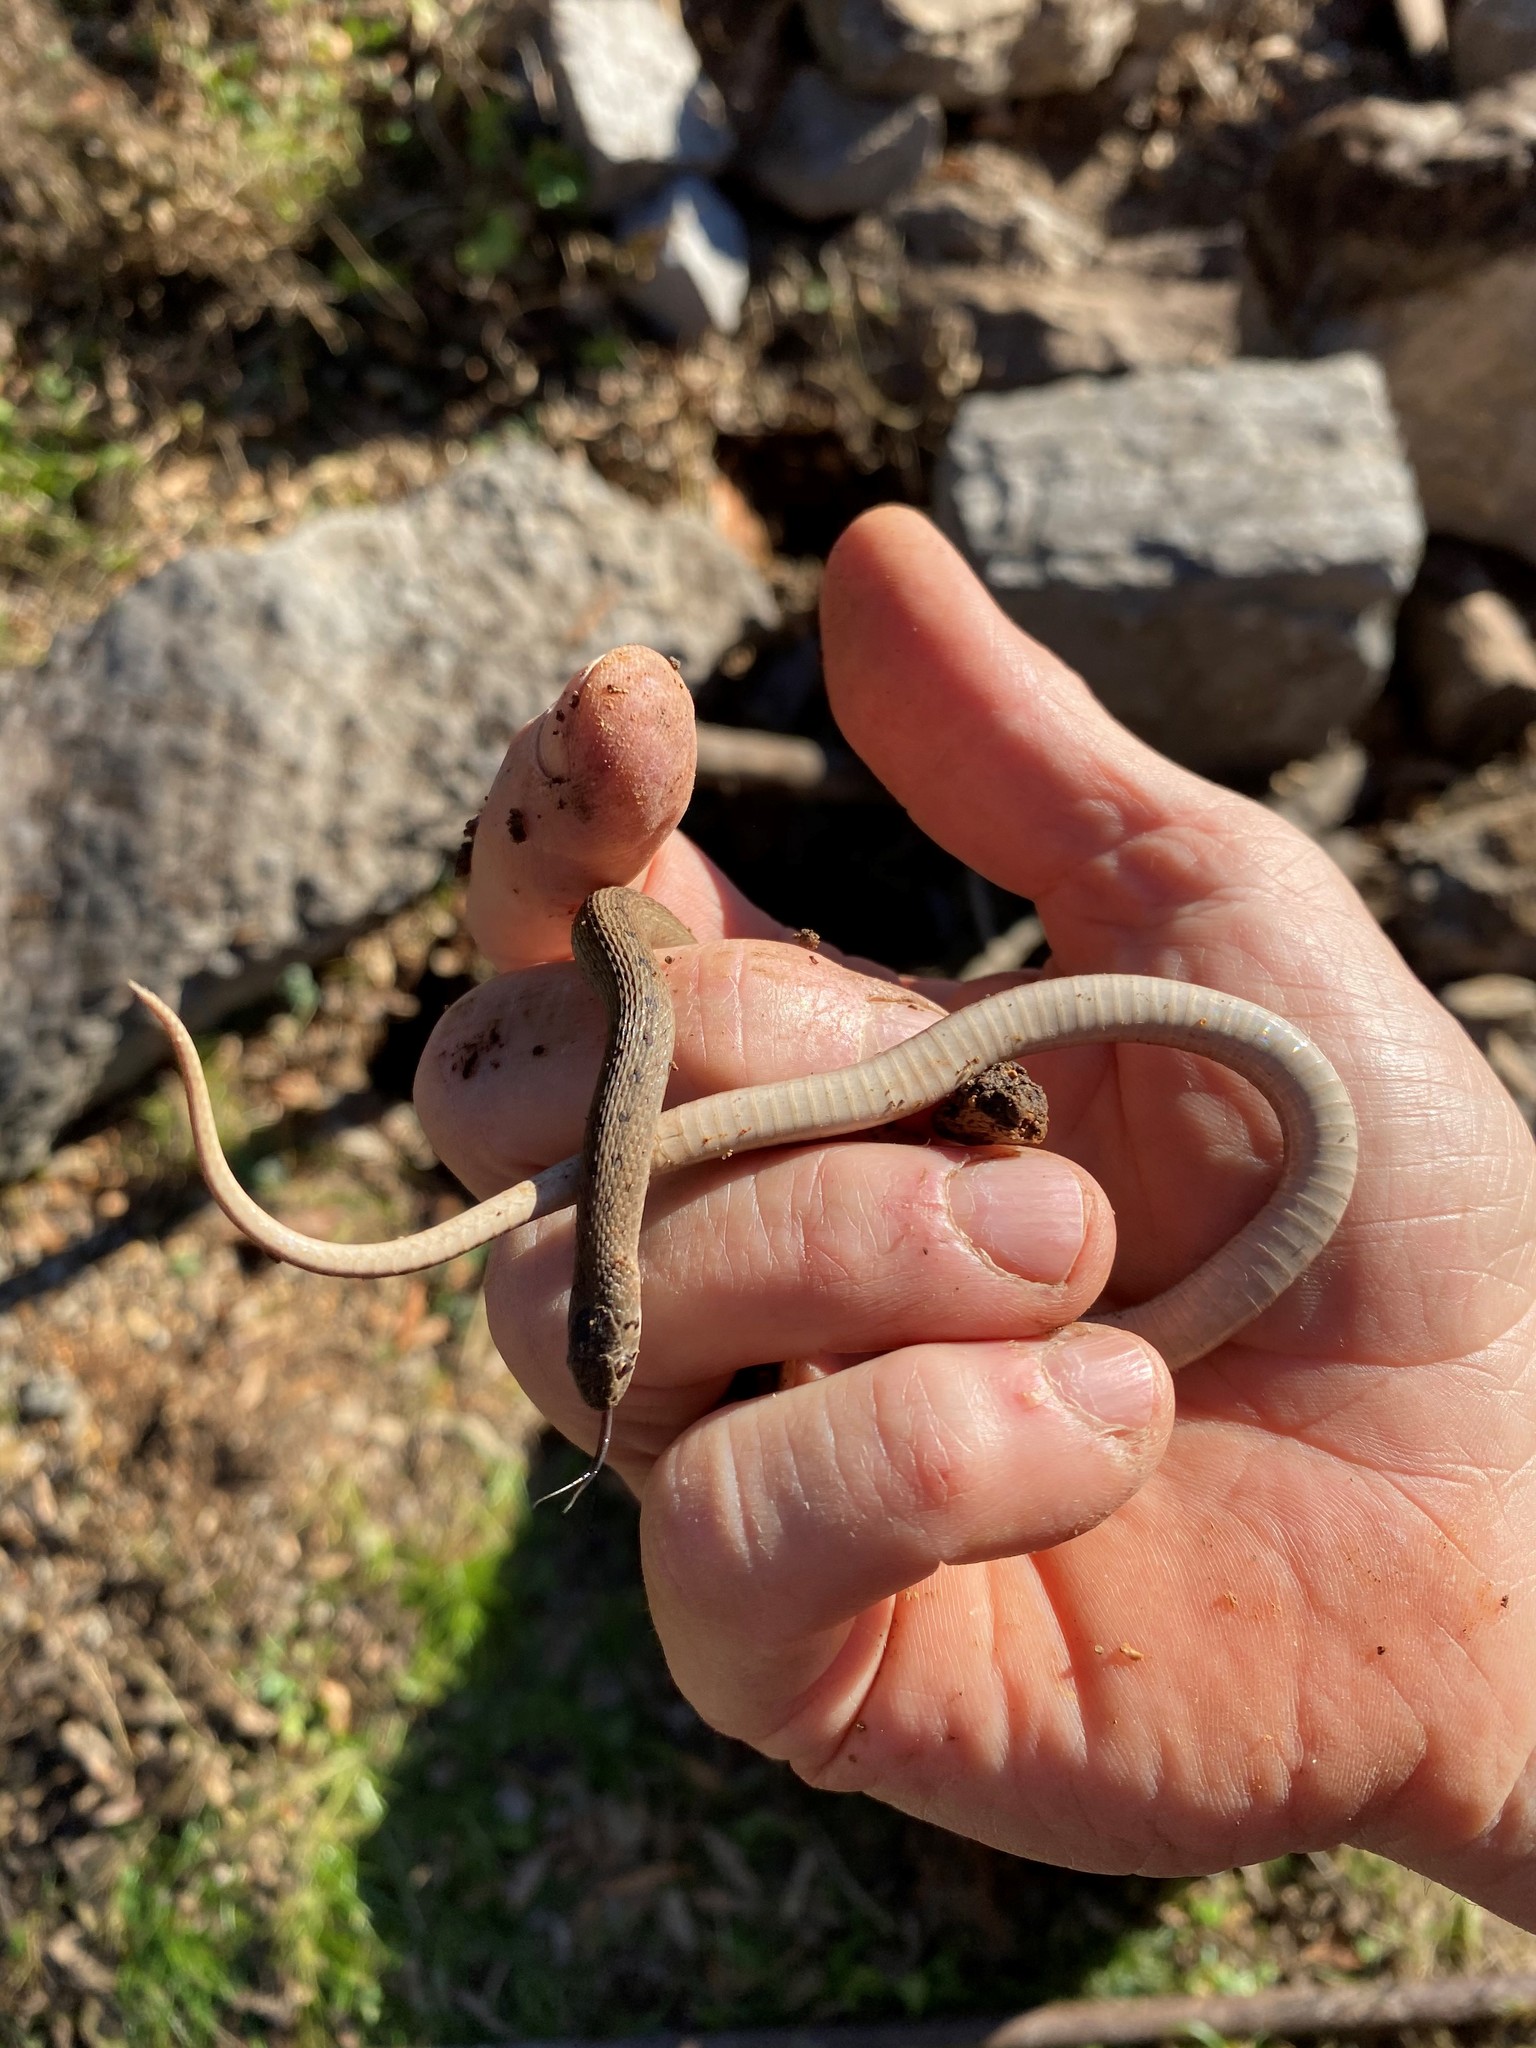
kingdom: Animalia
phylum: Chordata
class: Squamata
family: Colubridae
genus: Storeria
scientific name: Storeria dekayi
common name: (dekay’s) brown snake
